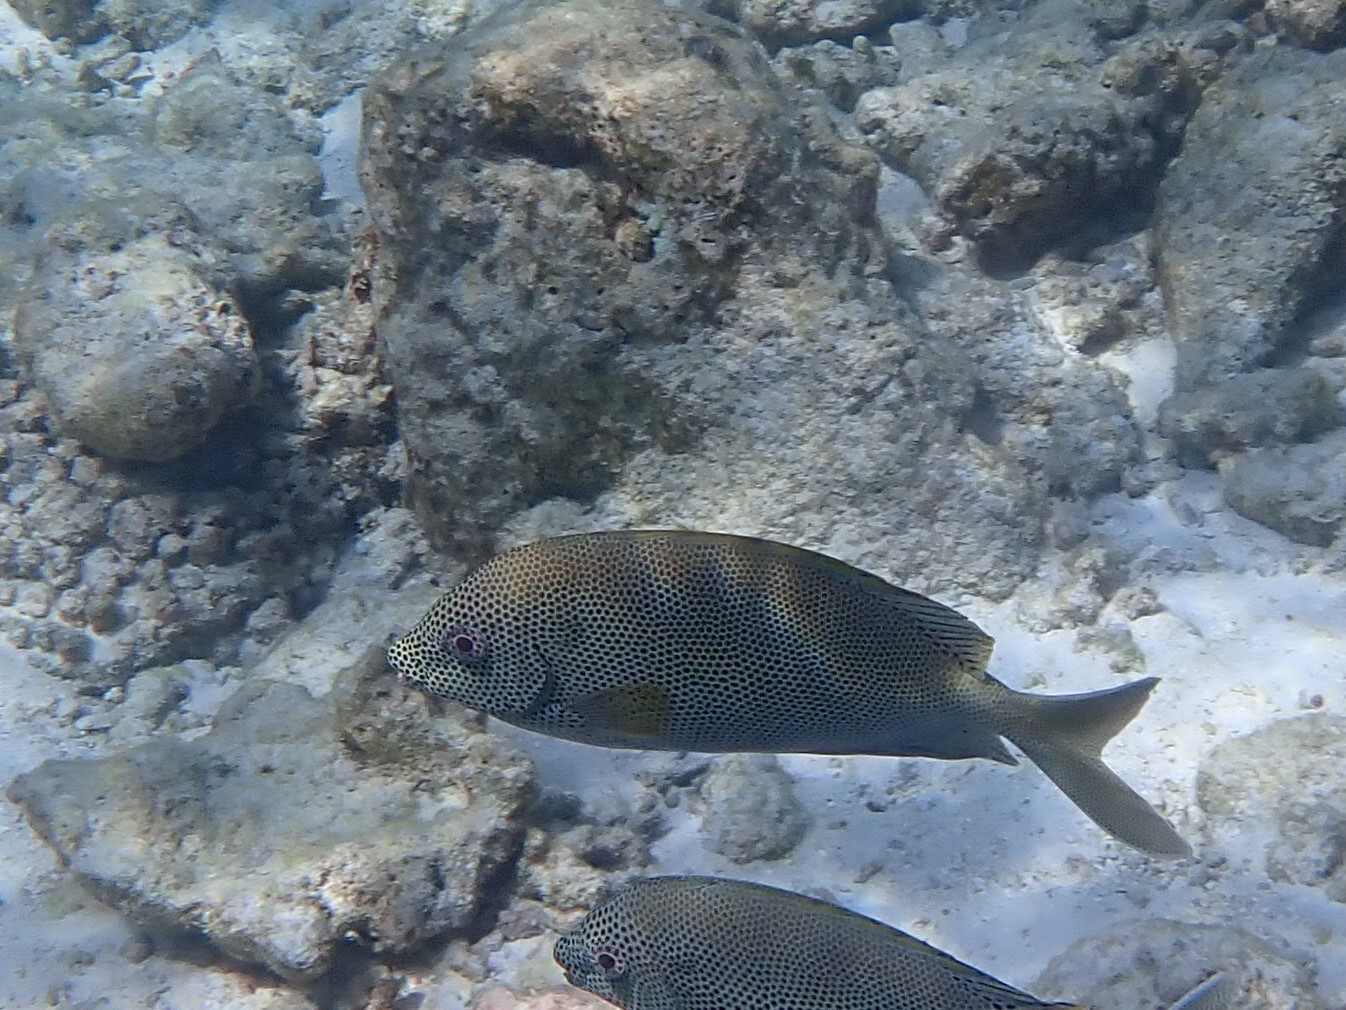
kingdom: Animalia
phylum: Chordata
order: Perciformes
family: Siganidae
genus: Siganus
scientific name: Siganus stellatus
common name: Brown-spotted spinefoot
